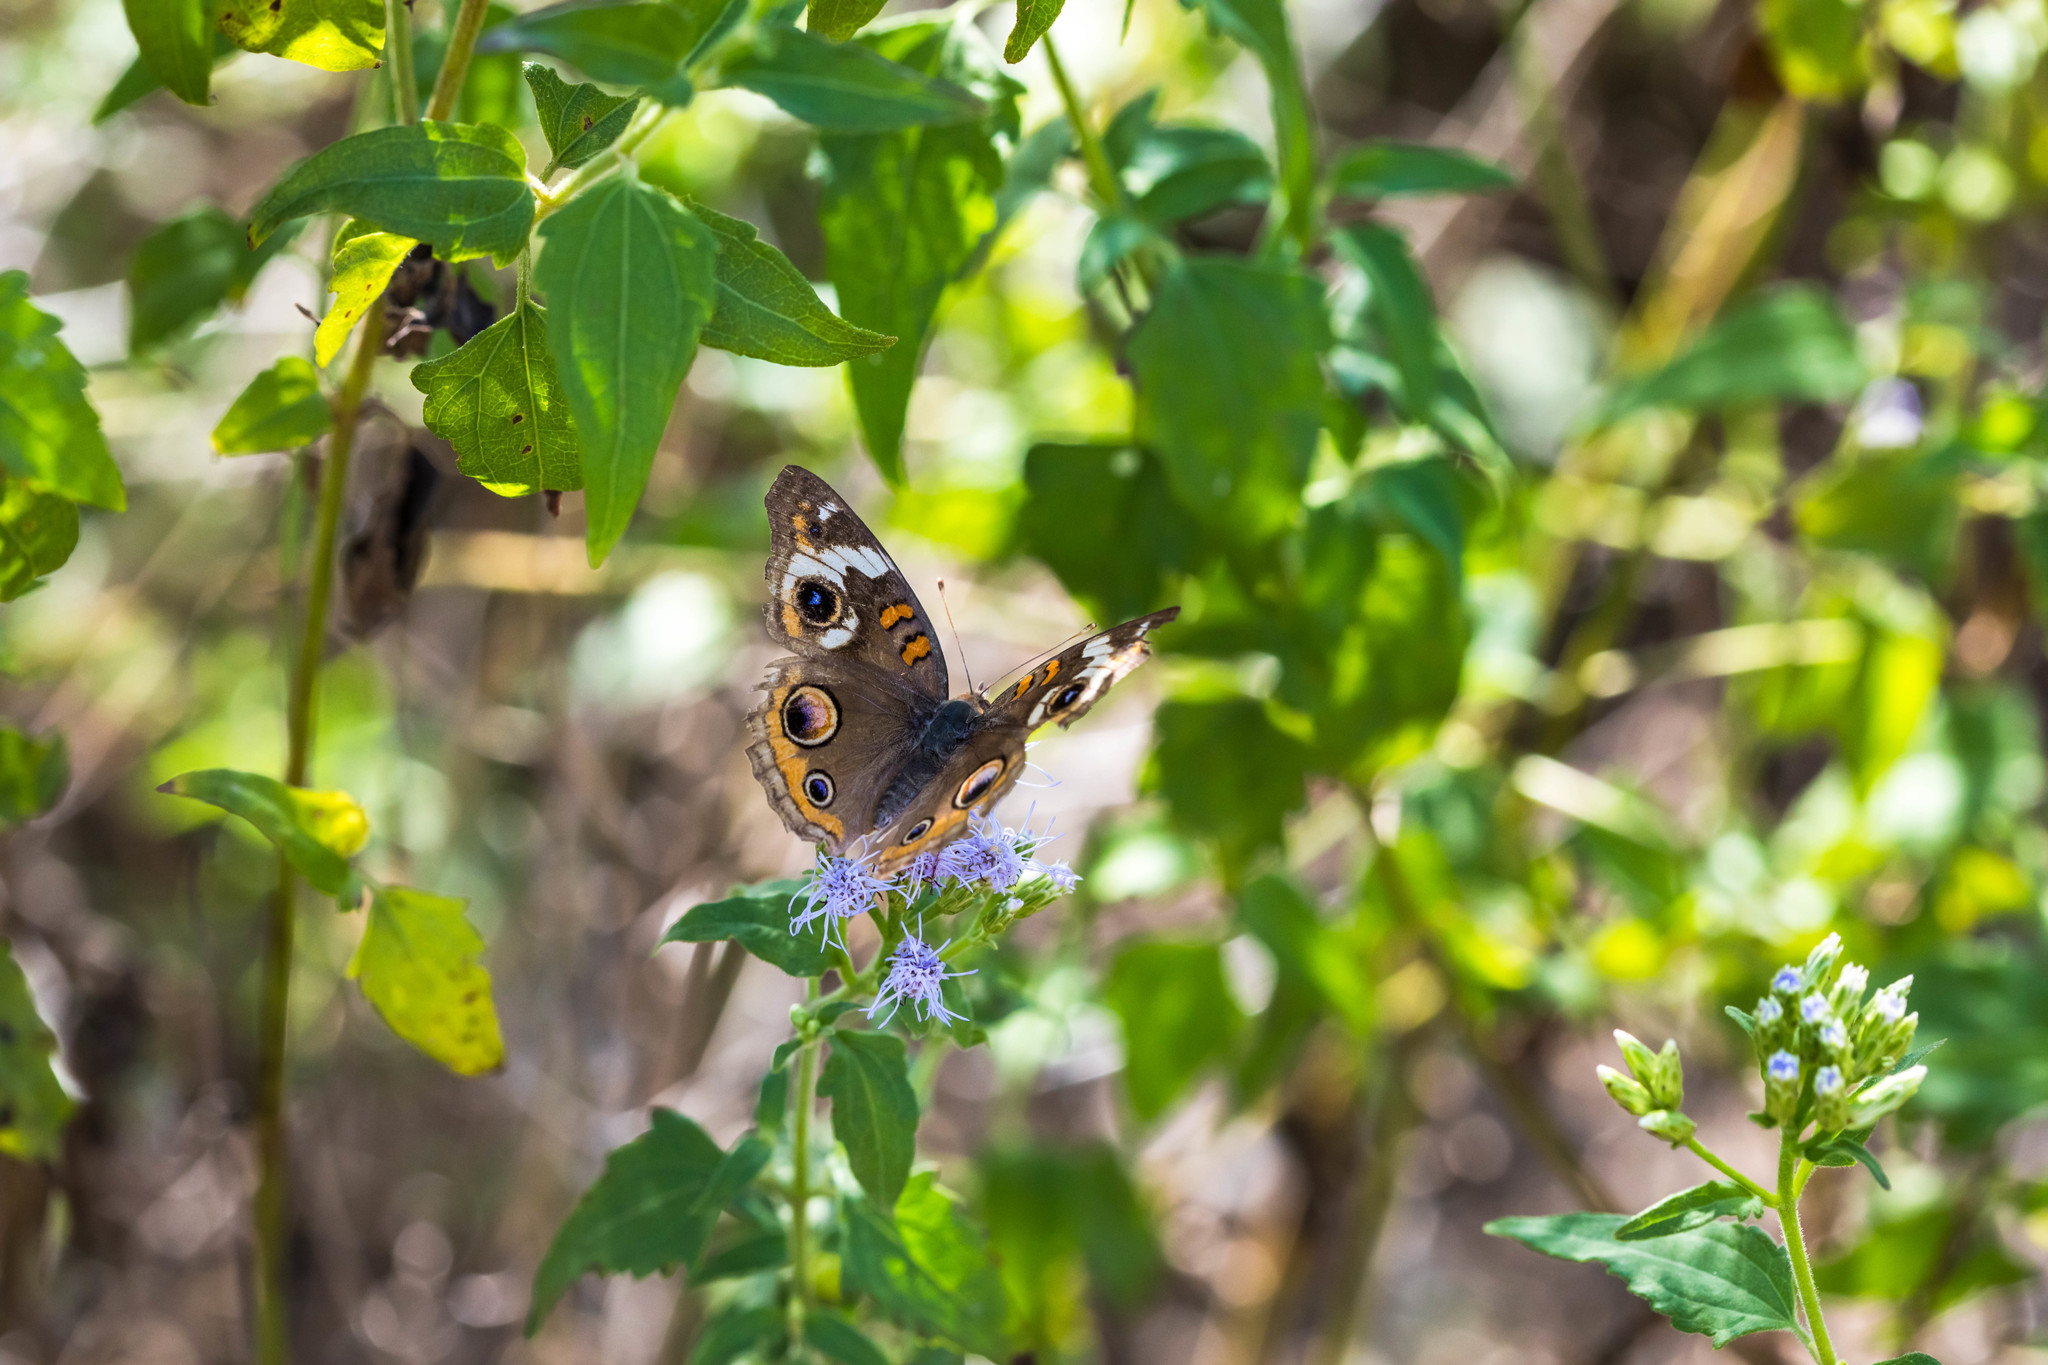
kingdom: Animalia
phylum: Arthropoda
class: Insecta
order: Lepidoptera
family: Nymphalidae
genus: Junonia
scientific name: Junonia coenia
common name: Common buckeye
